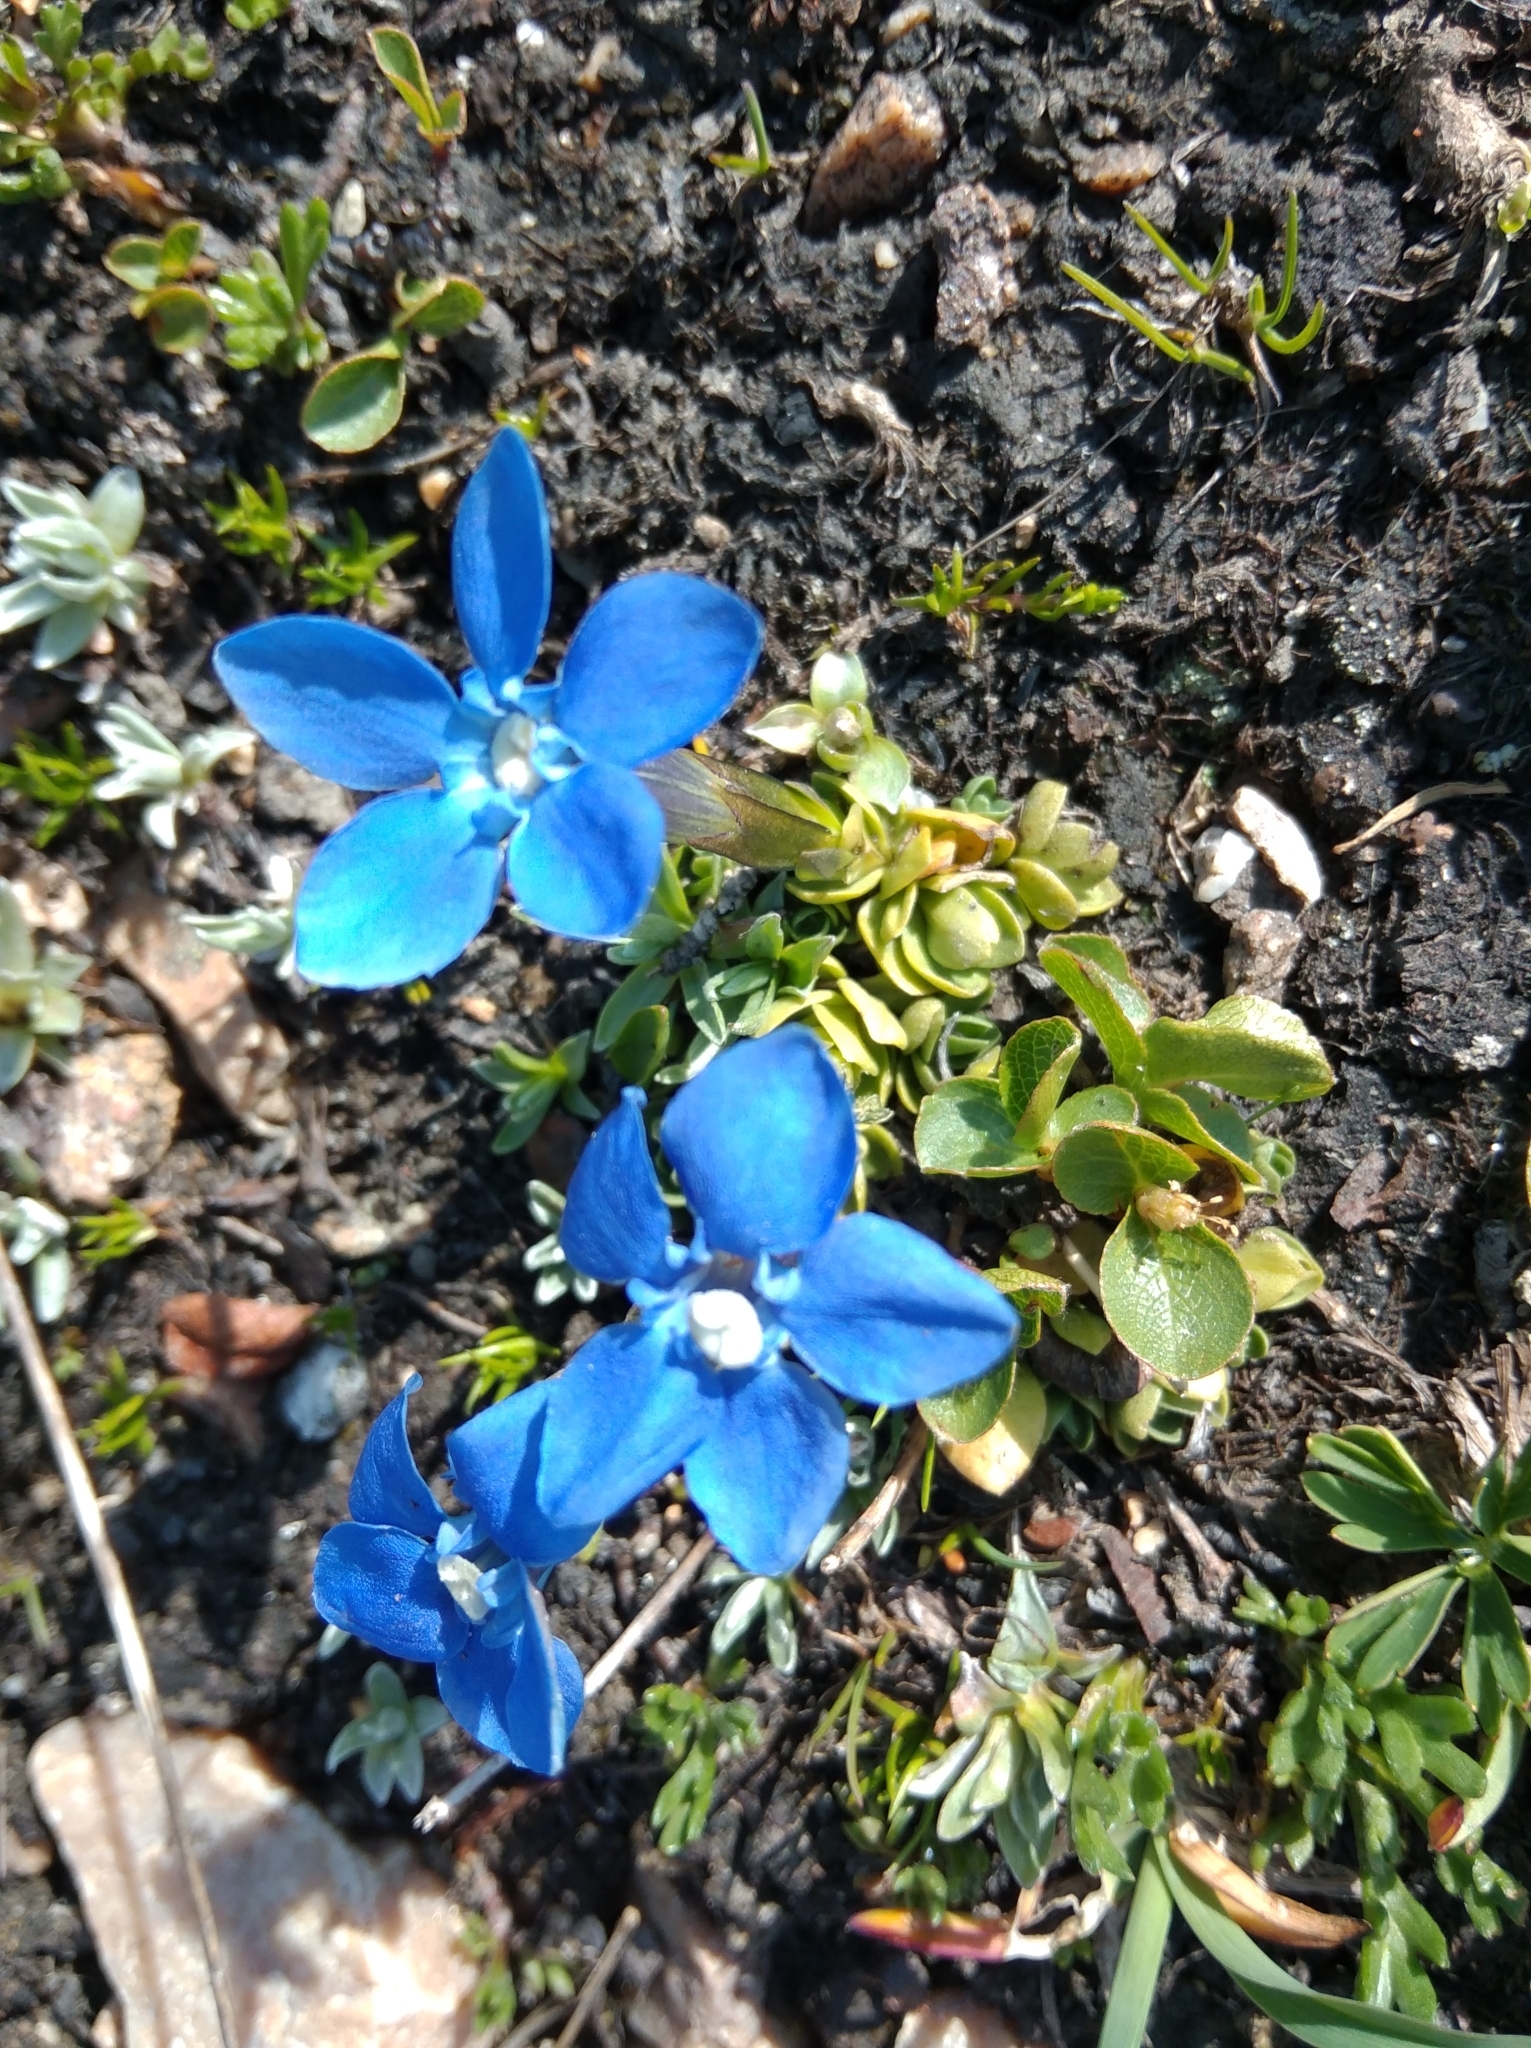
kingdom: Plantae
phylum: Tracheophyta
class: Magnoliopsida
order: Gentianales
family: Gentianaceae
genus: Gentiana
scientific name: Gentiana terglouensis
